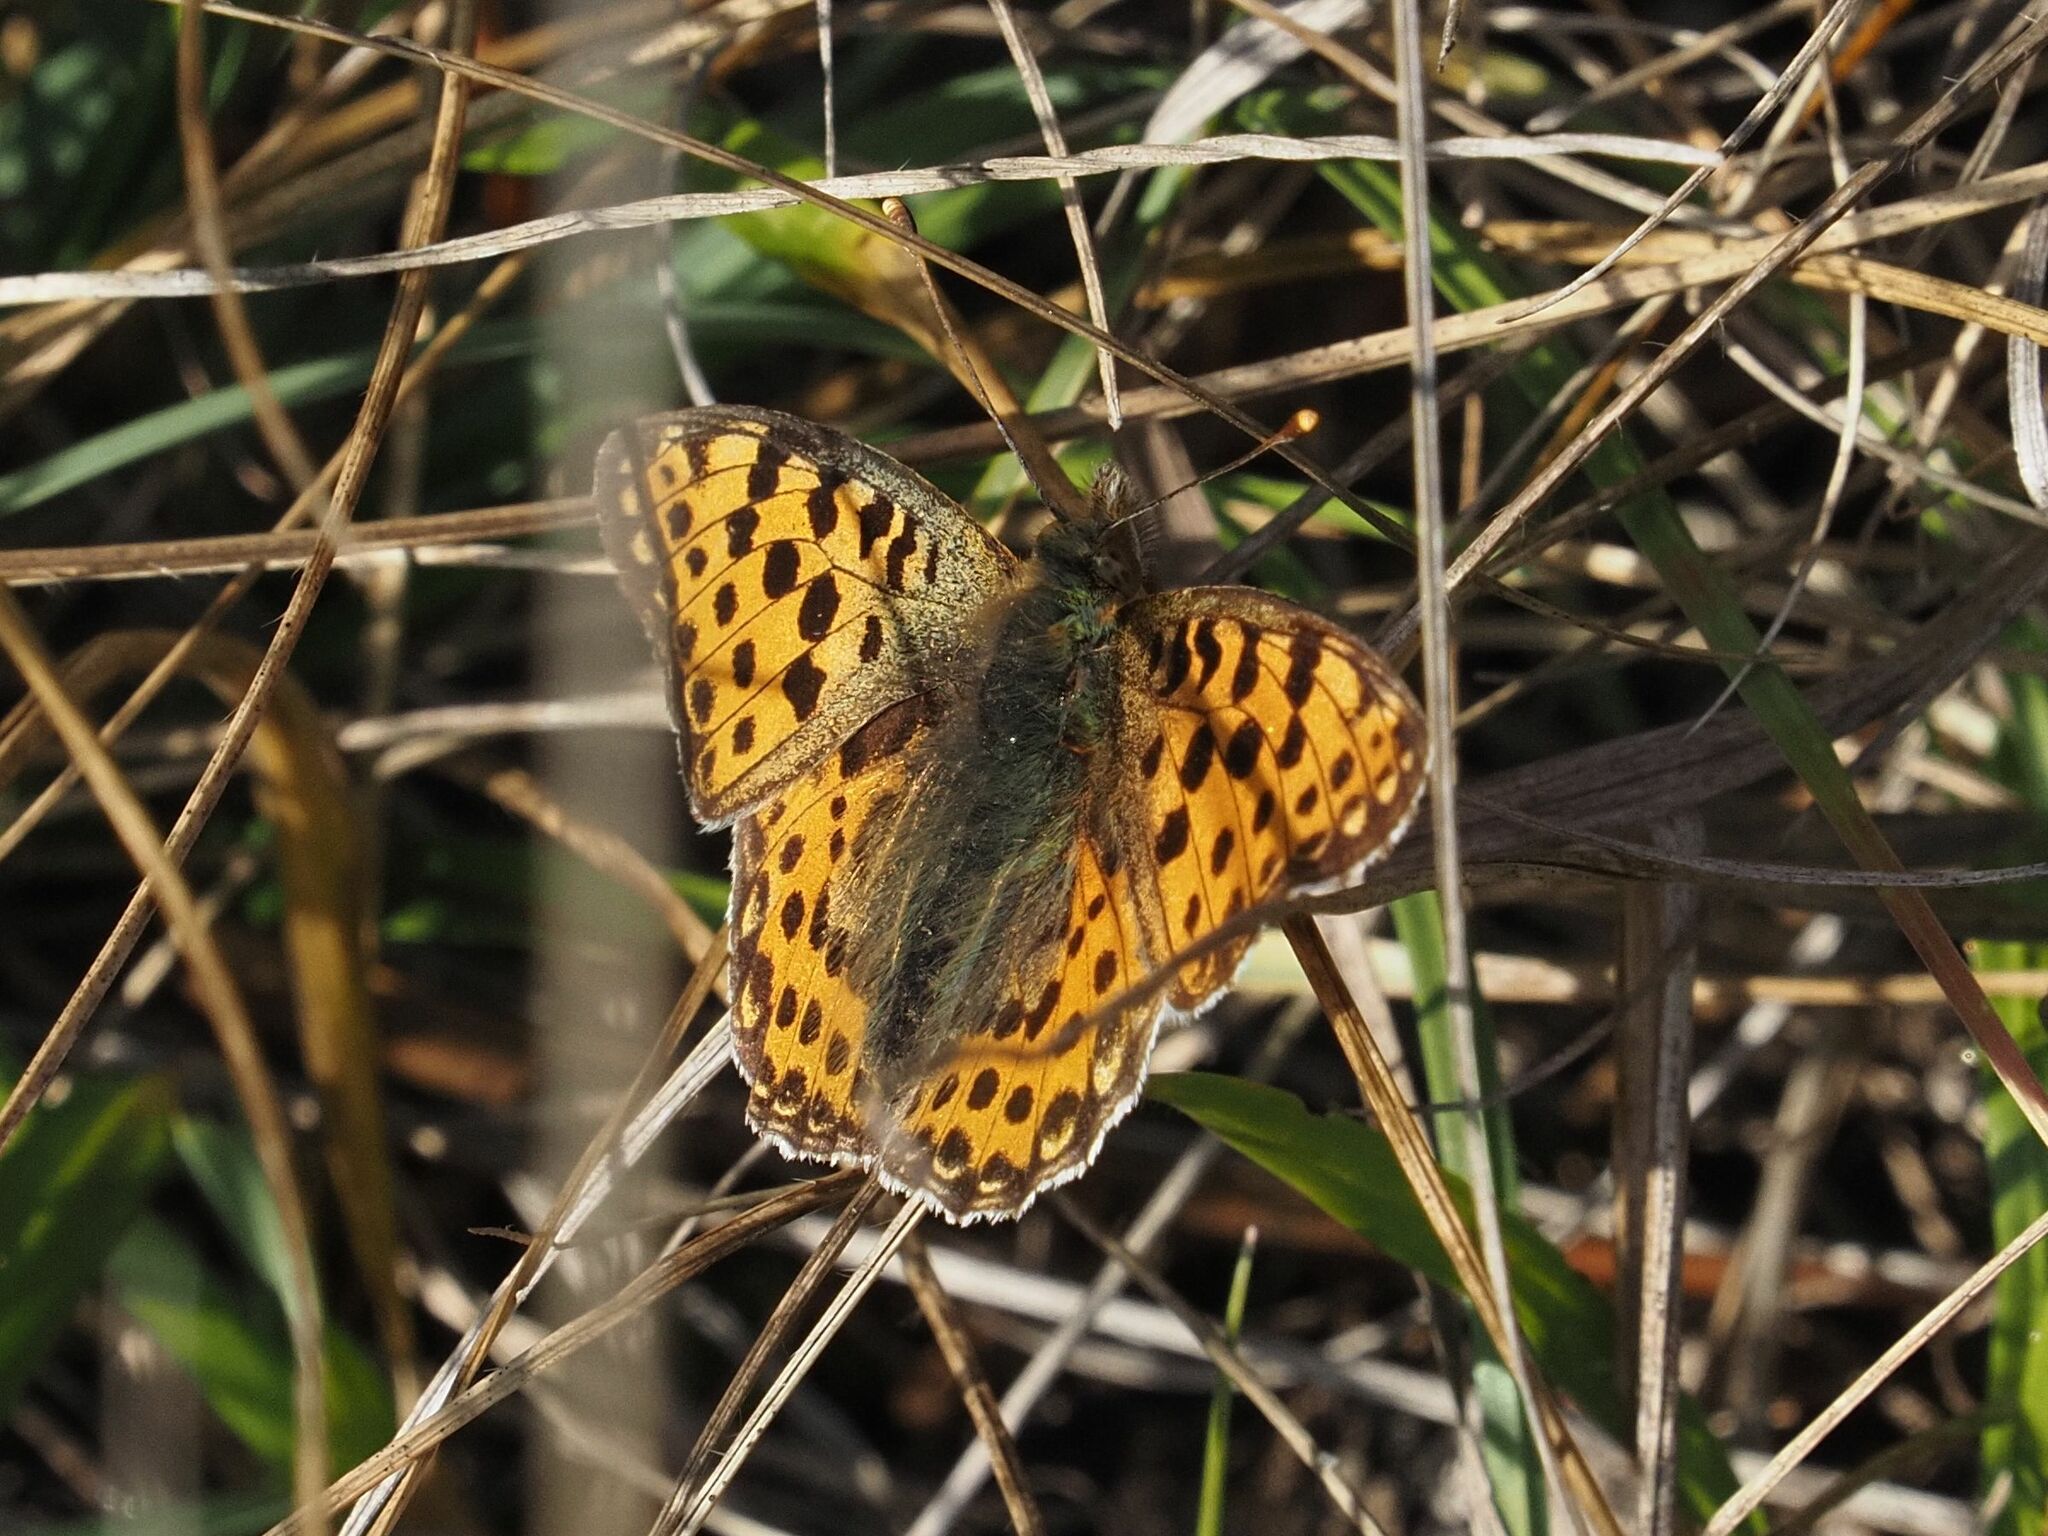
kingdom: Animalia
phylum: Arthropoda
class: Insecta
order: Lepidoptera
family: Nymphalidae
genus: Issoria
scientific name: Issoria lathonia
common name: Queen of spain fritillary
